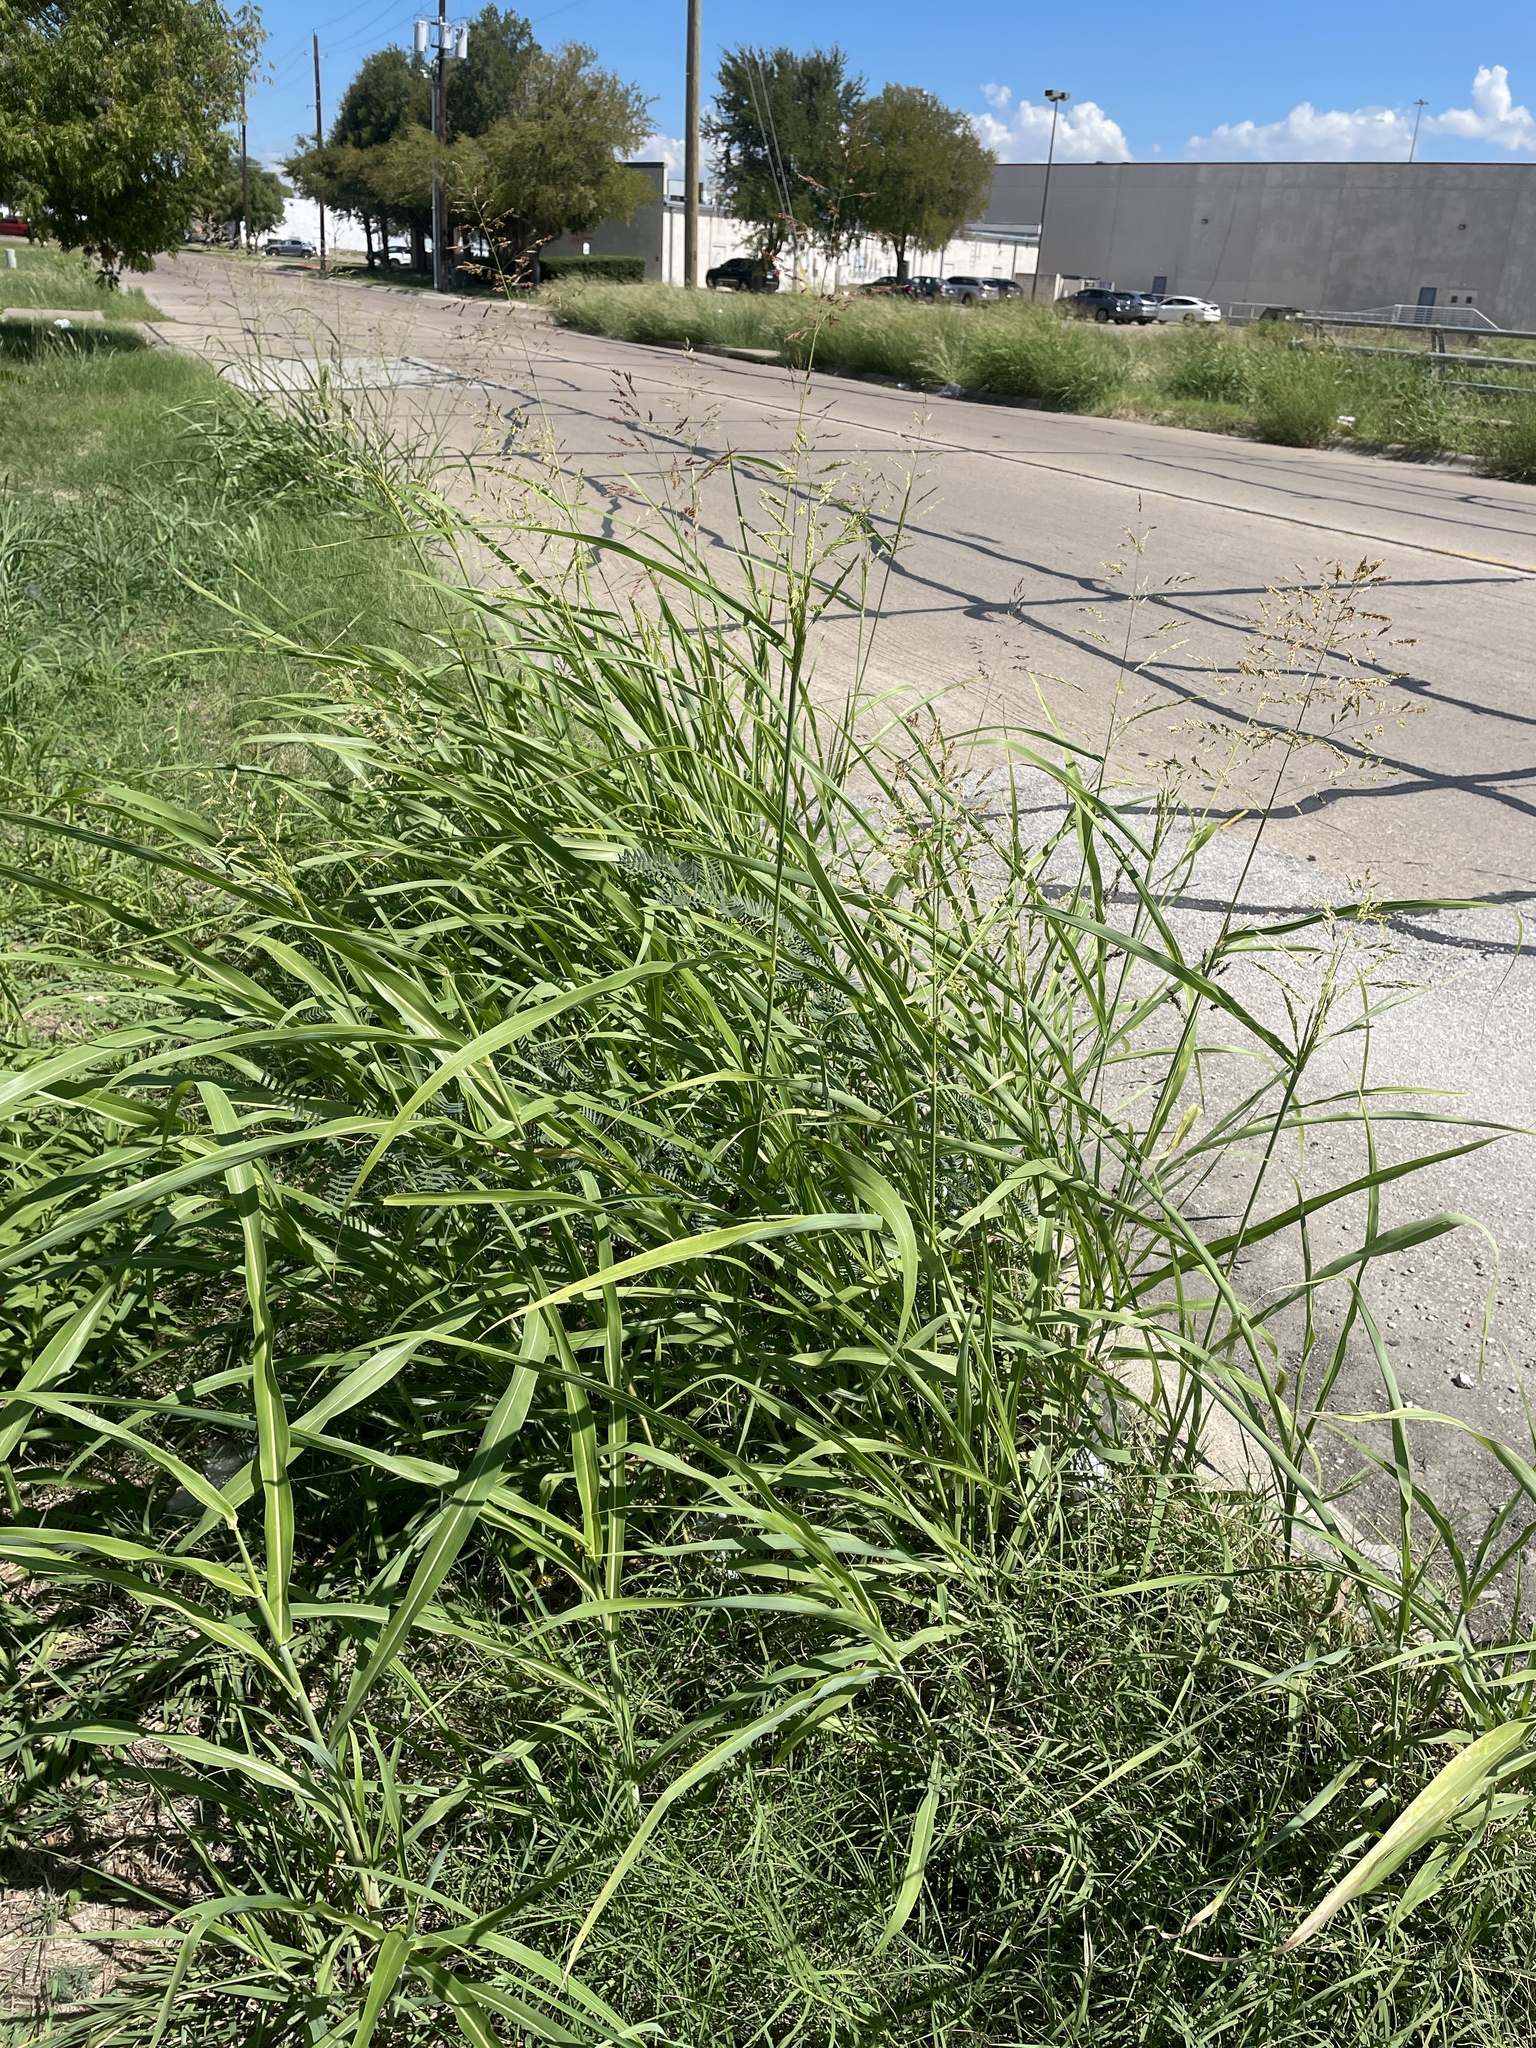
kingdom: Plantae
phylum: Tracheophyta
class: Liliopsida
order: Poales
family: Poaceae
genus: Sorghum
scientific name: Sorghum halepense
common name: Johnson-grass
